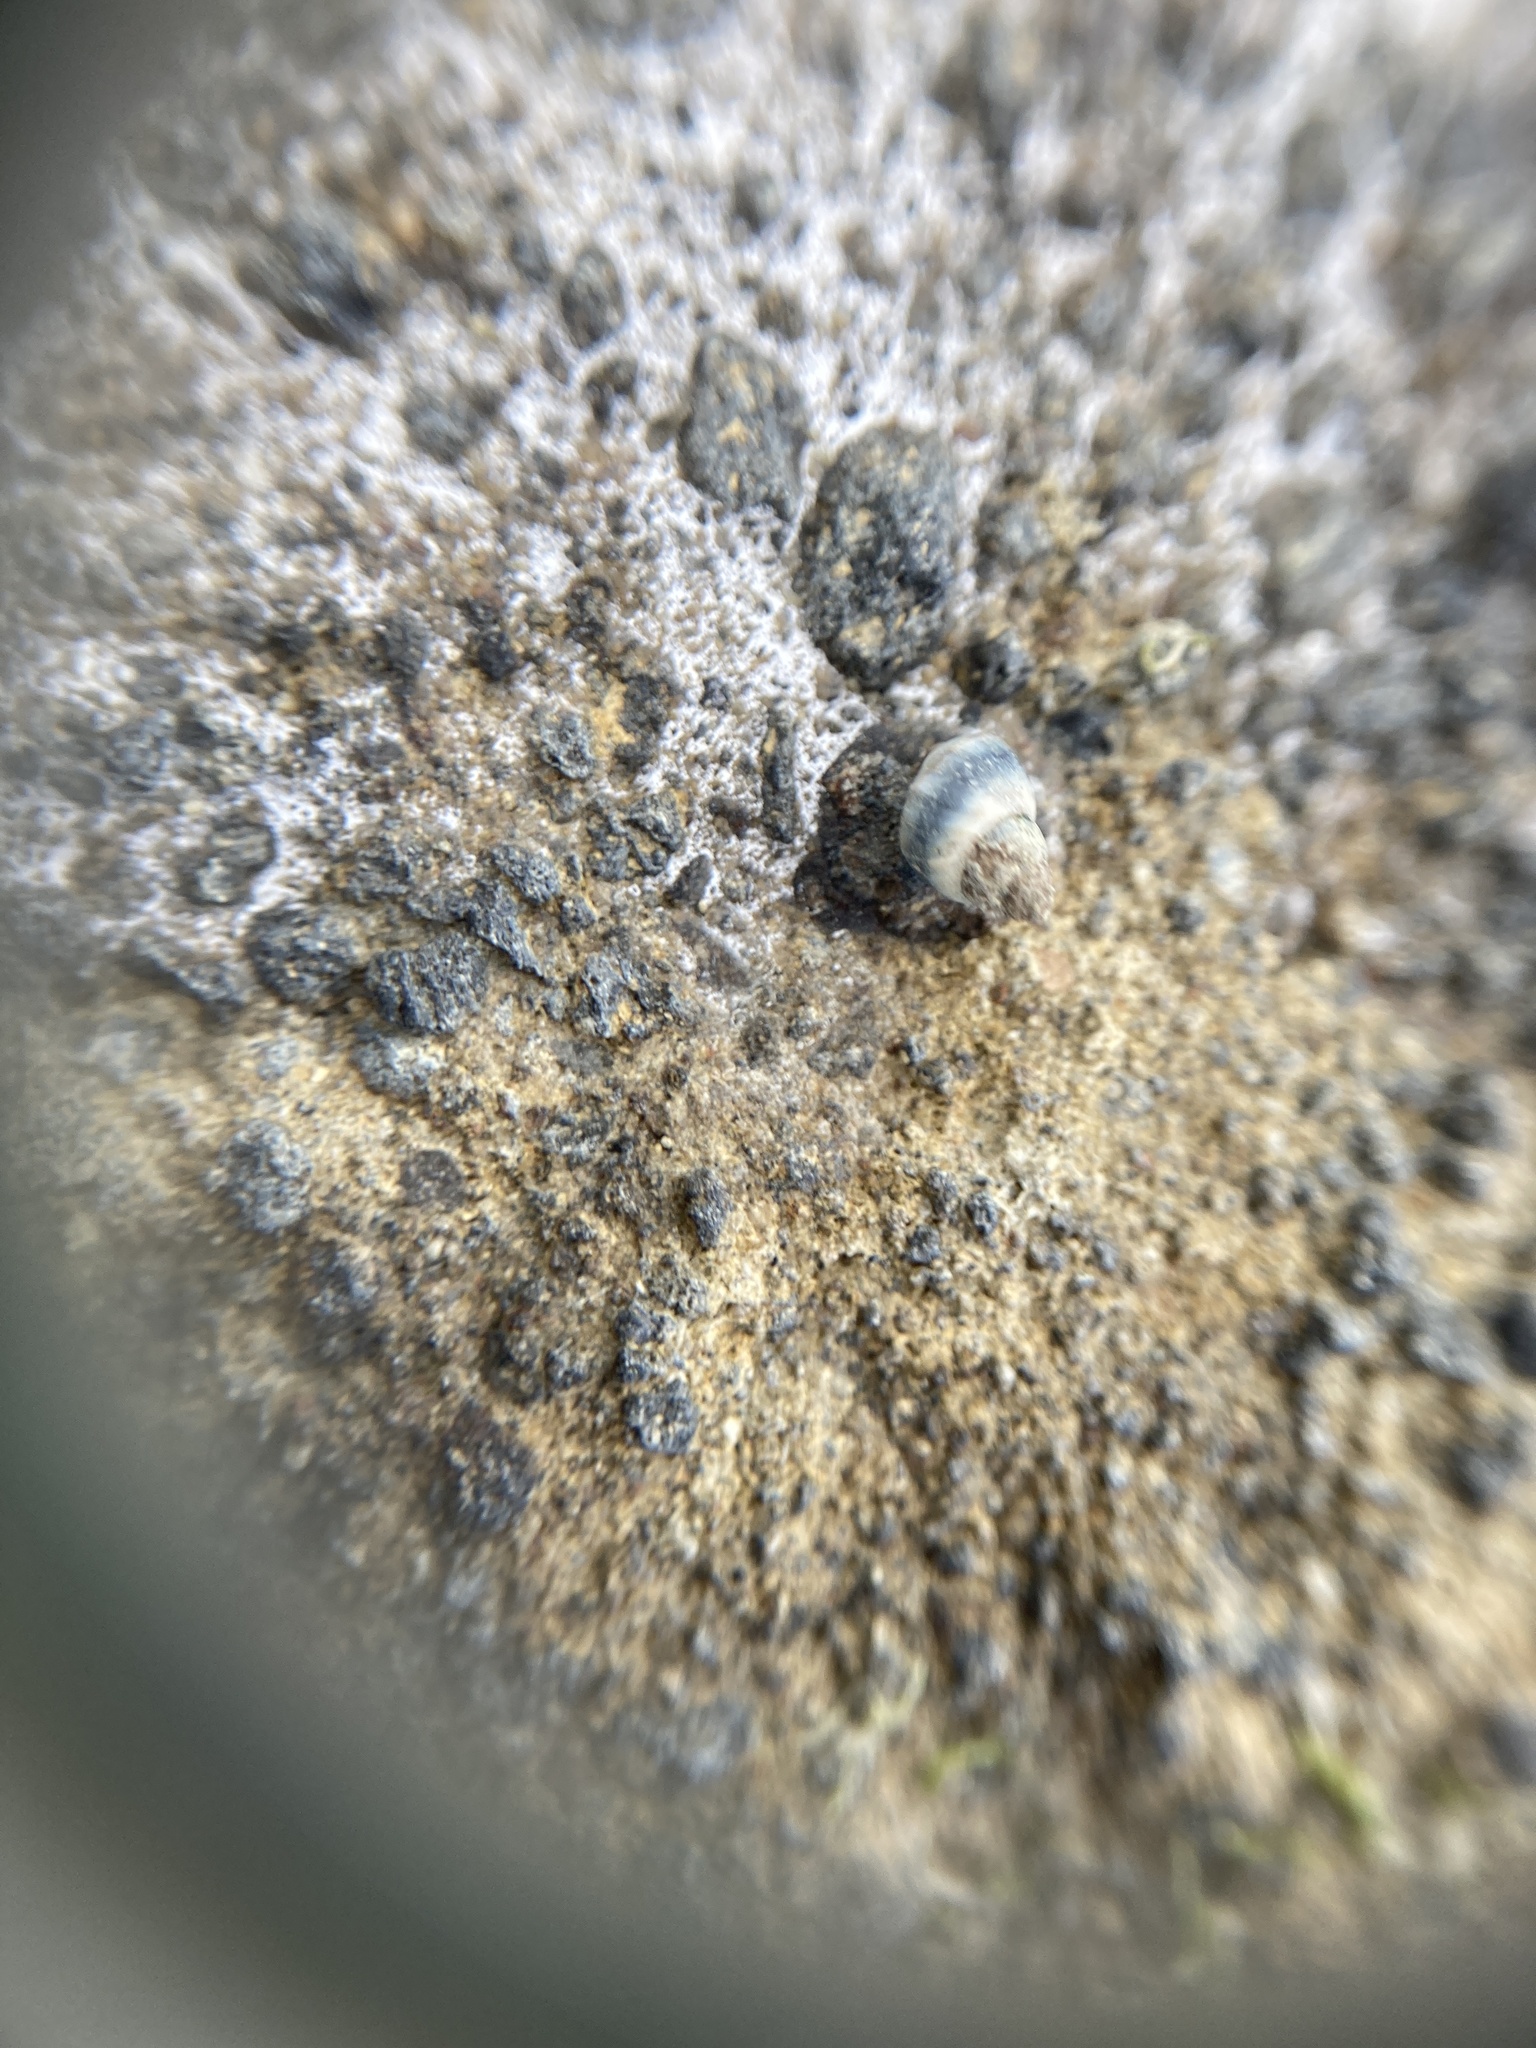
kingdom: Animalia
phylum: Mollusca
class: Gastropoda
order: Littorinimorpha
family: Littorinidae
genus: Austrolittorina
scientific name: Austrolittorina antipodum
